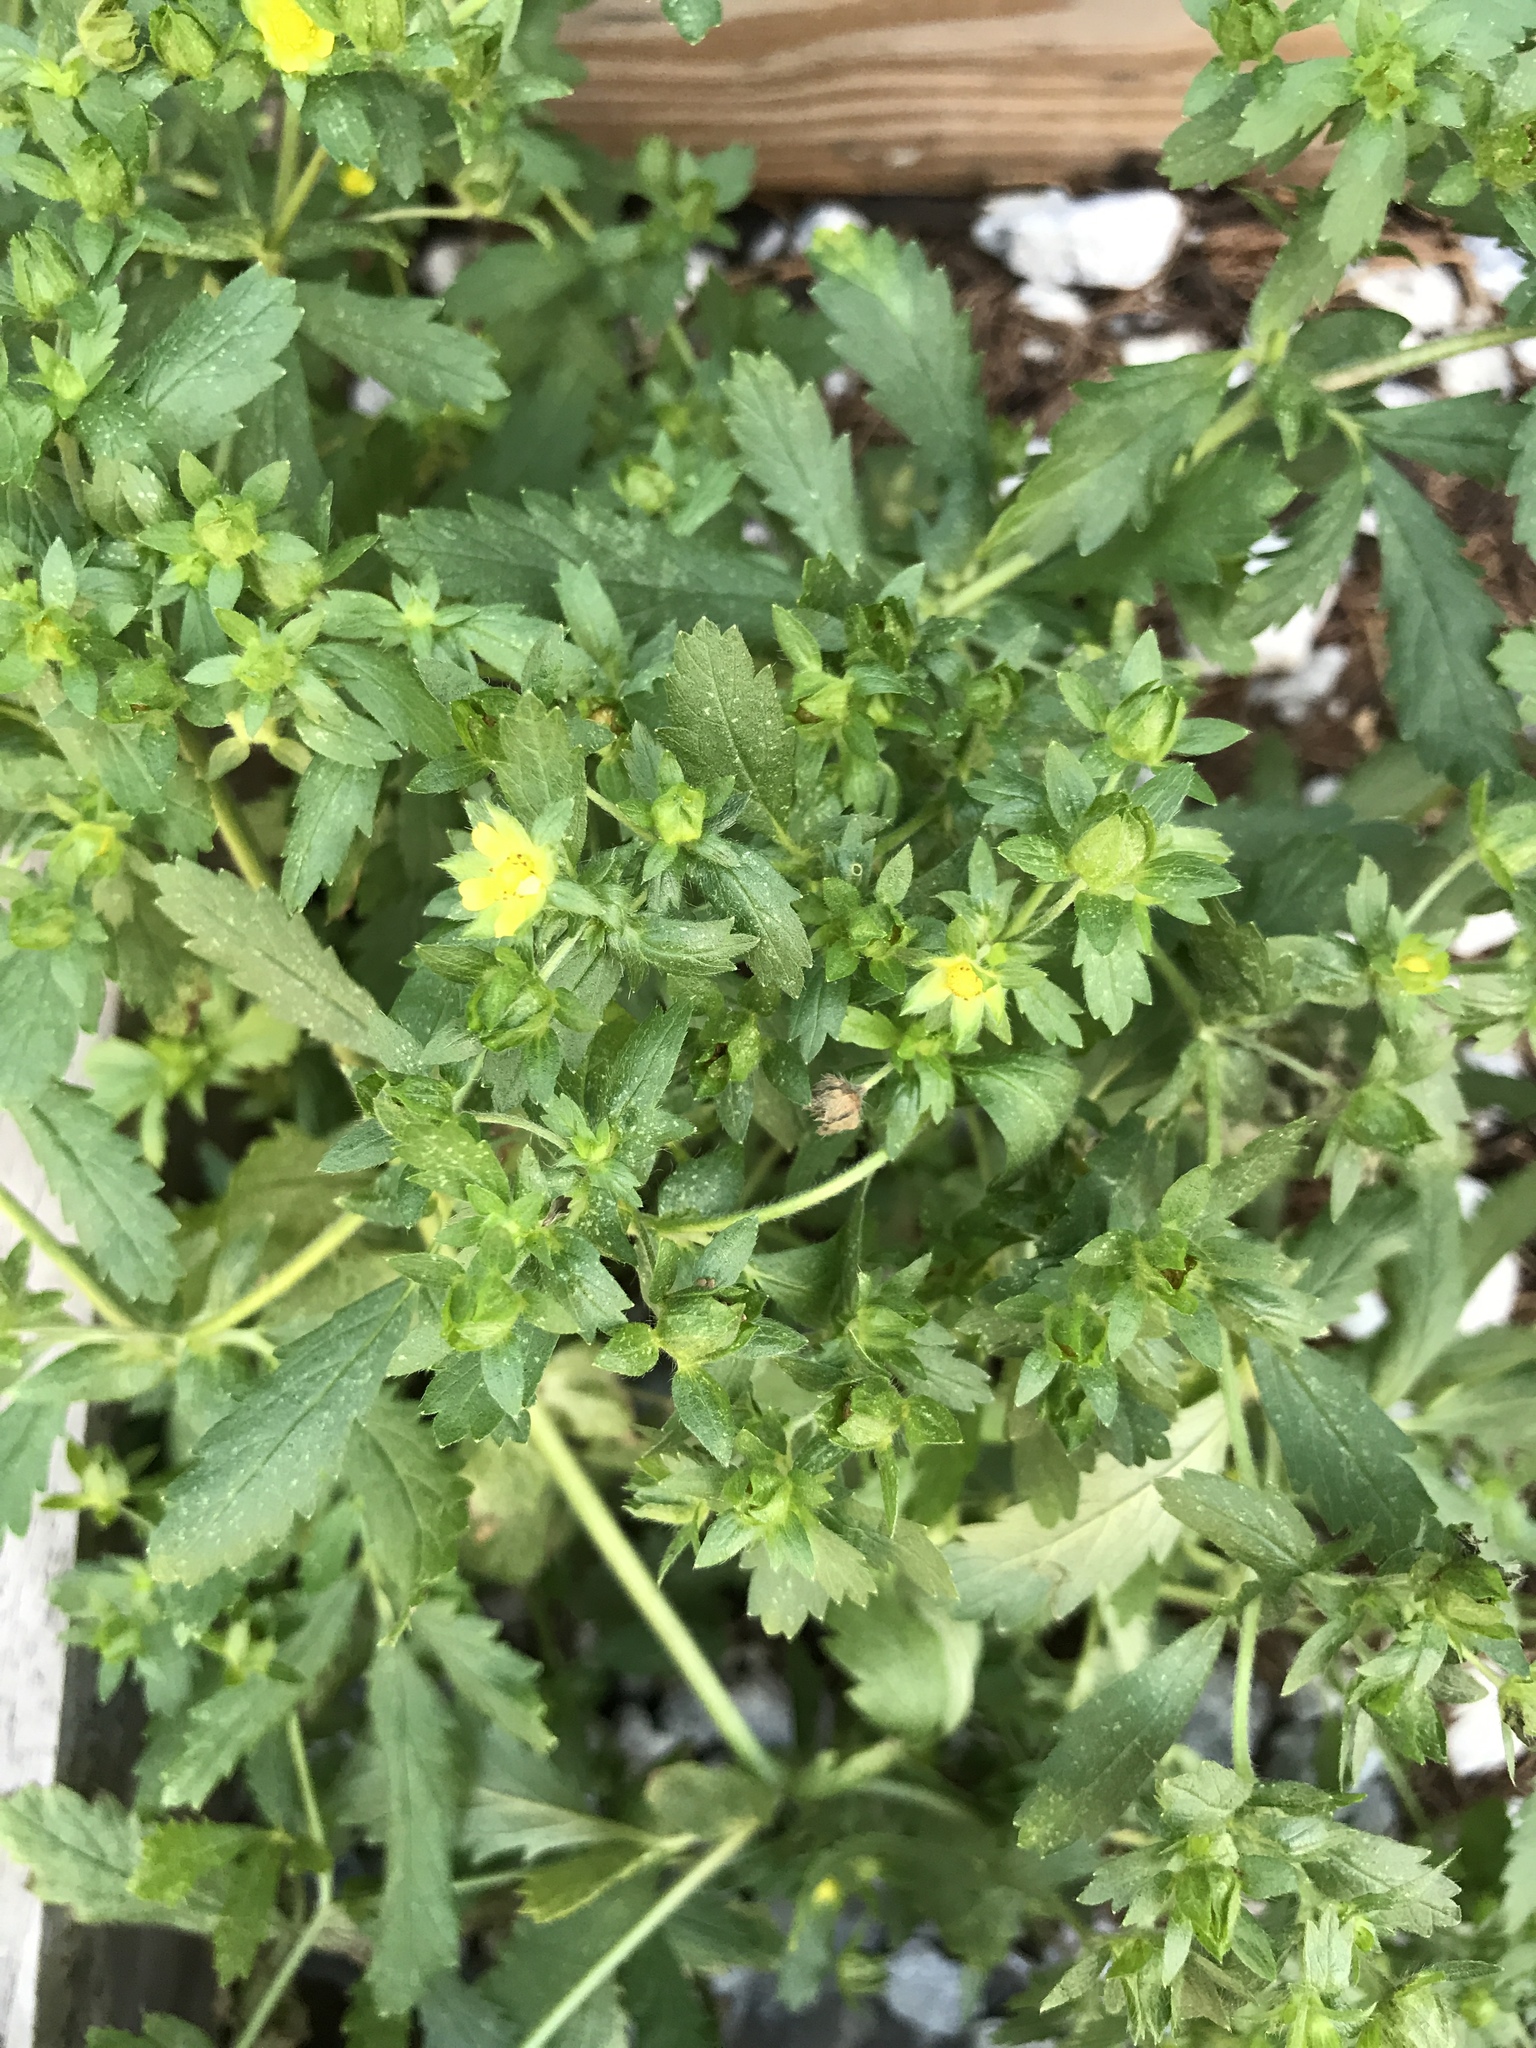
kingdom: Plantae
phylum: Tracheophyta
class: Magnoliopsida
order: Rosales
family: Rosaceae
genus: Potentilla
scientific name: Potentilla norvegica
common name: Ternate-leaved cinquefoil
